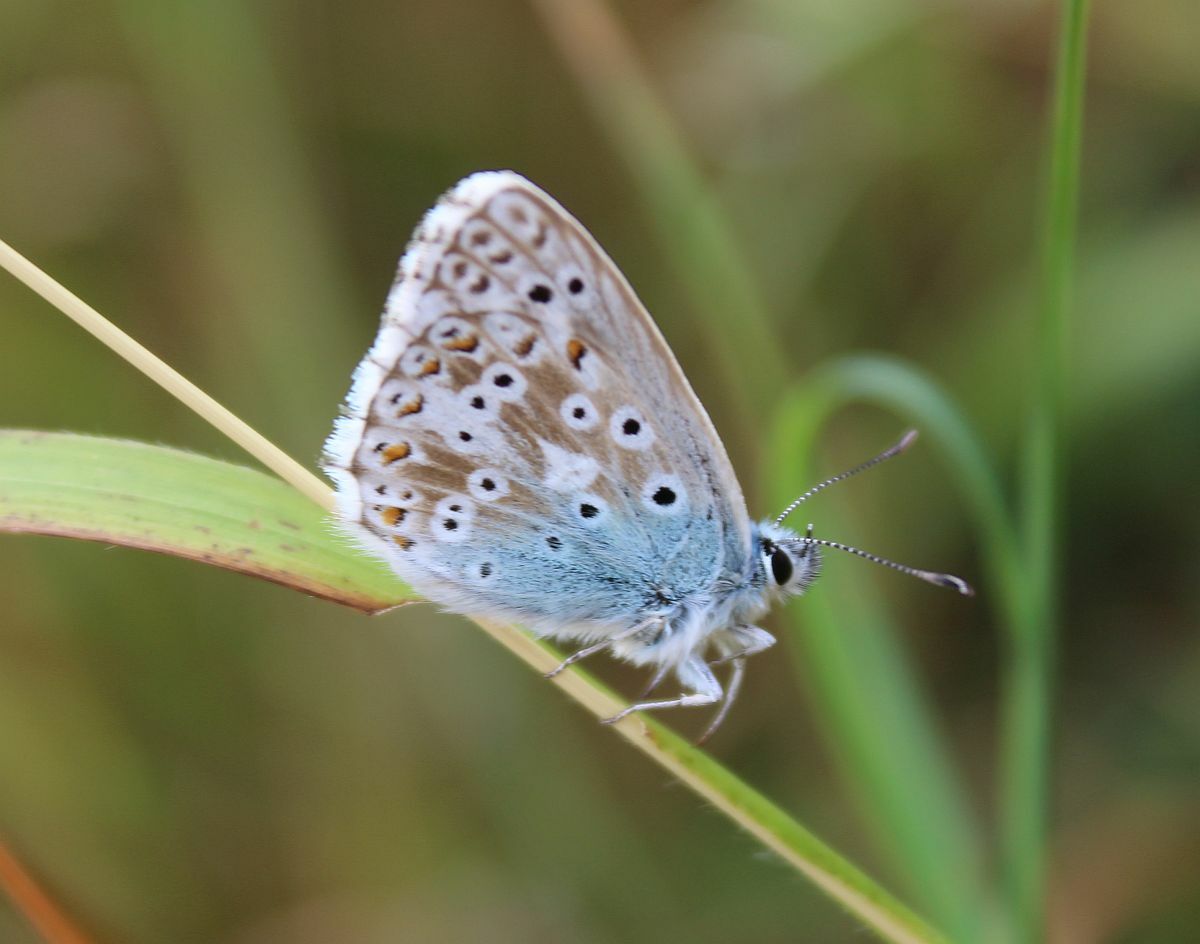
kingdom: Animalia
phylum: Arthropoda
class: Insecta
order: Lepidoptera
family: Lycaenidae
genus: Lysandra
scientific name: Lysandra coridon
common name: Chalkhill blue
